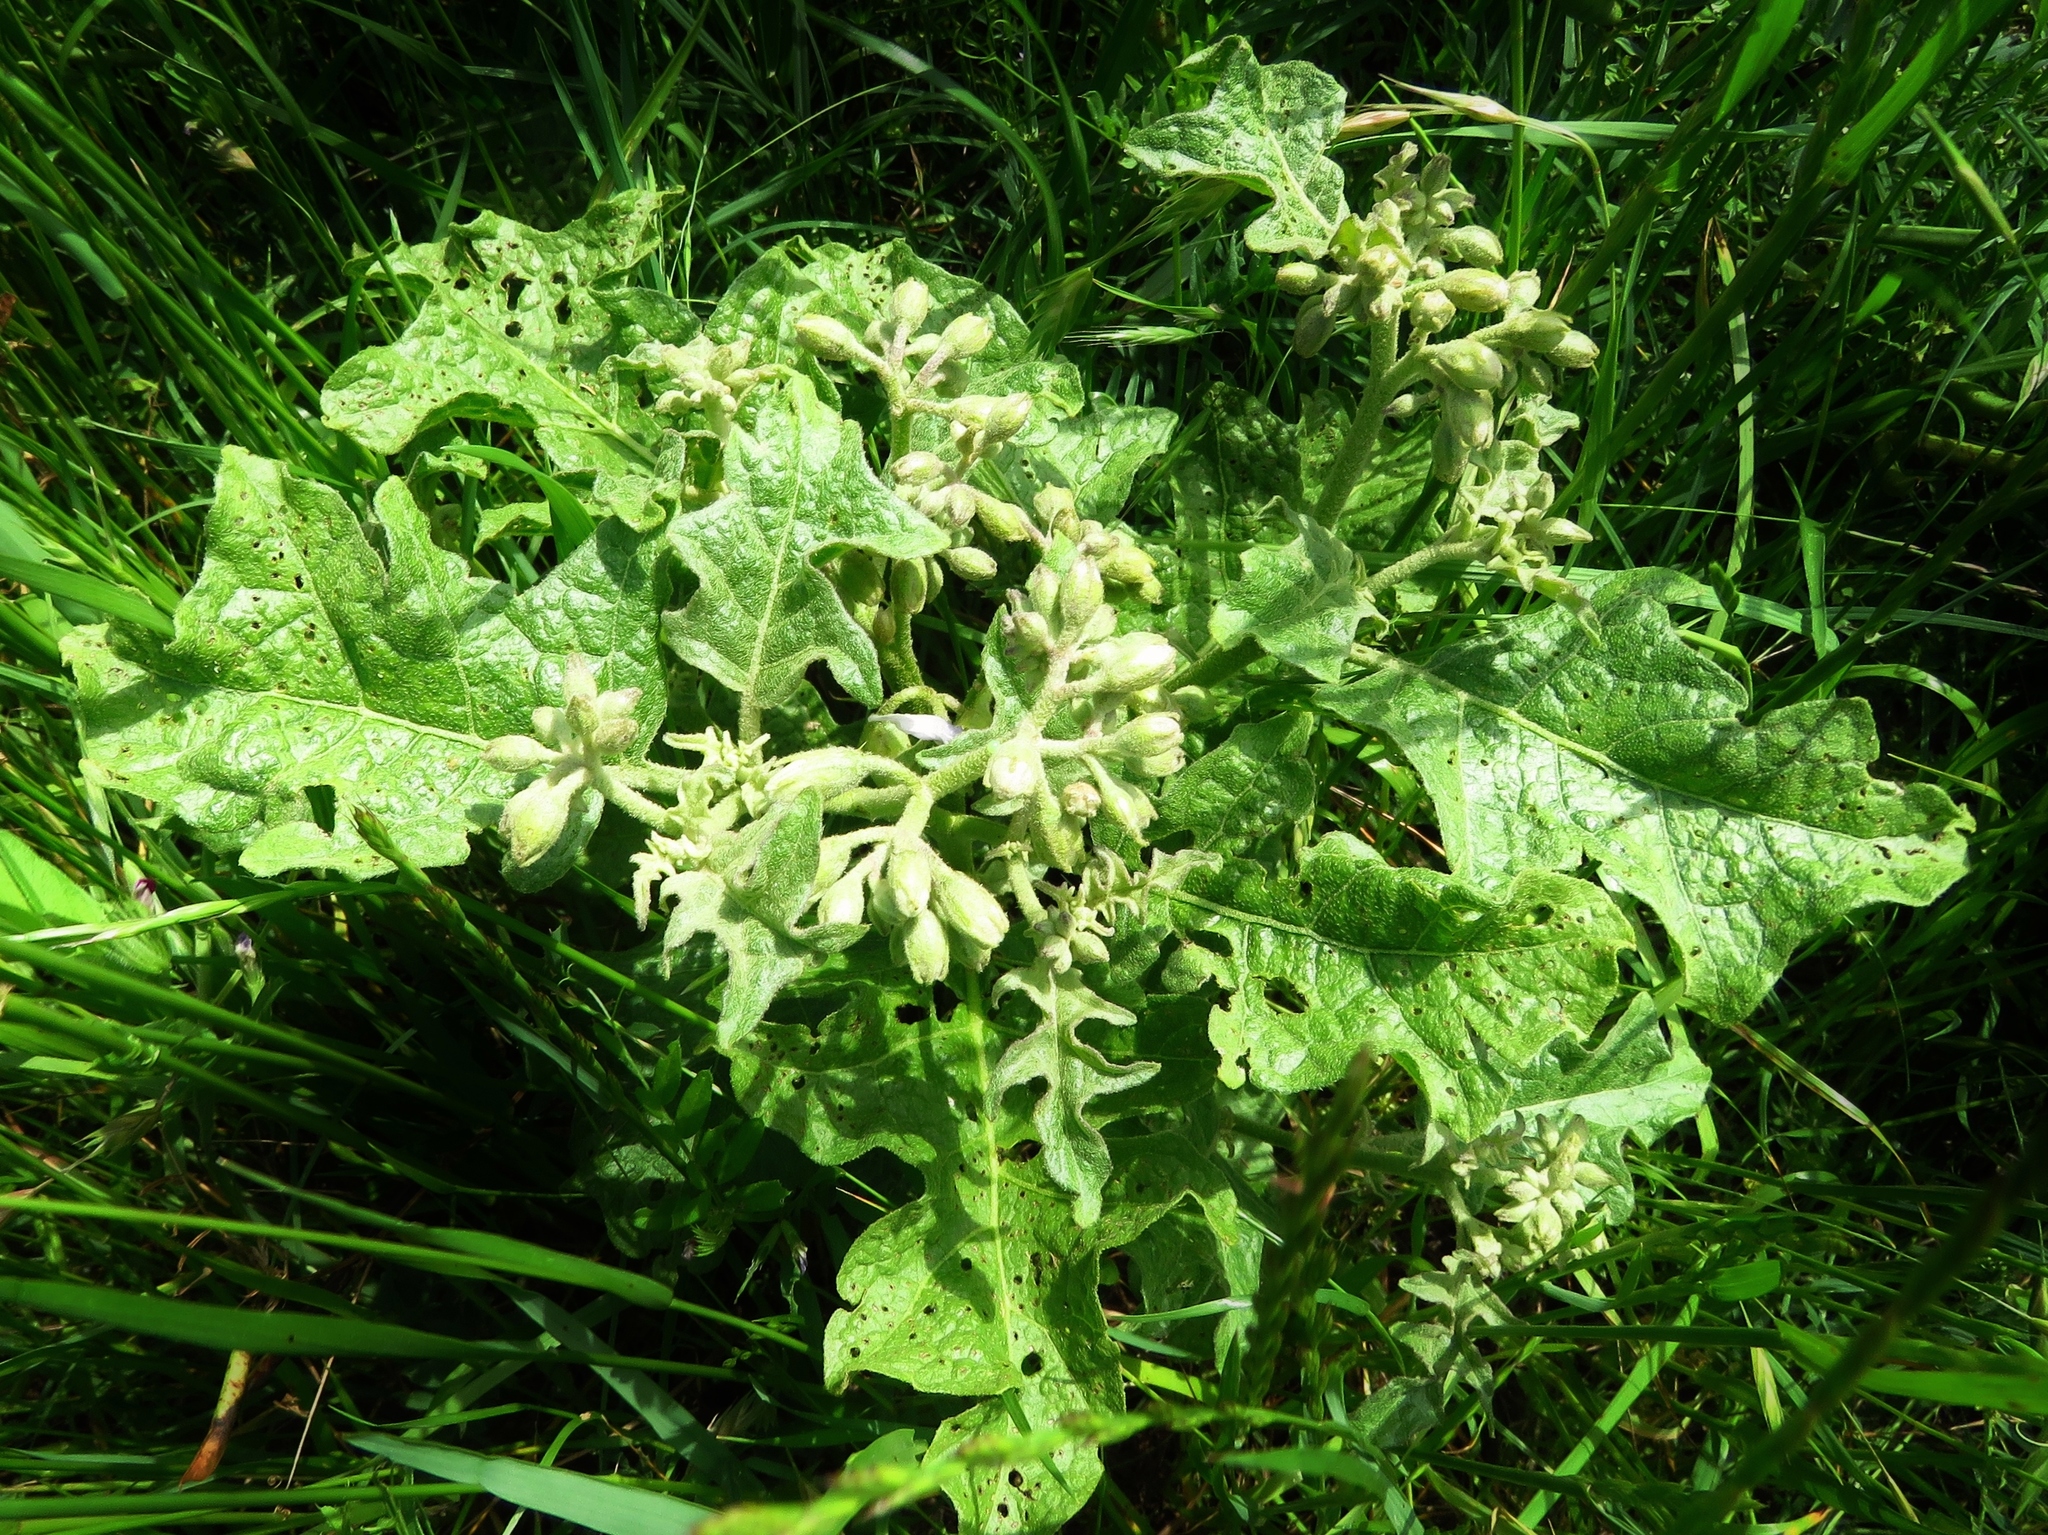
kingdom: Plantae
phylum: Tracheophyta
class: Magnoliopsida
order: Solanales
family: Solanaceae
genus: Solanum
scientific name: Solanum dimidiatum
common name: Carolina horse-nettle
